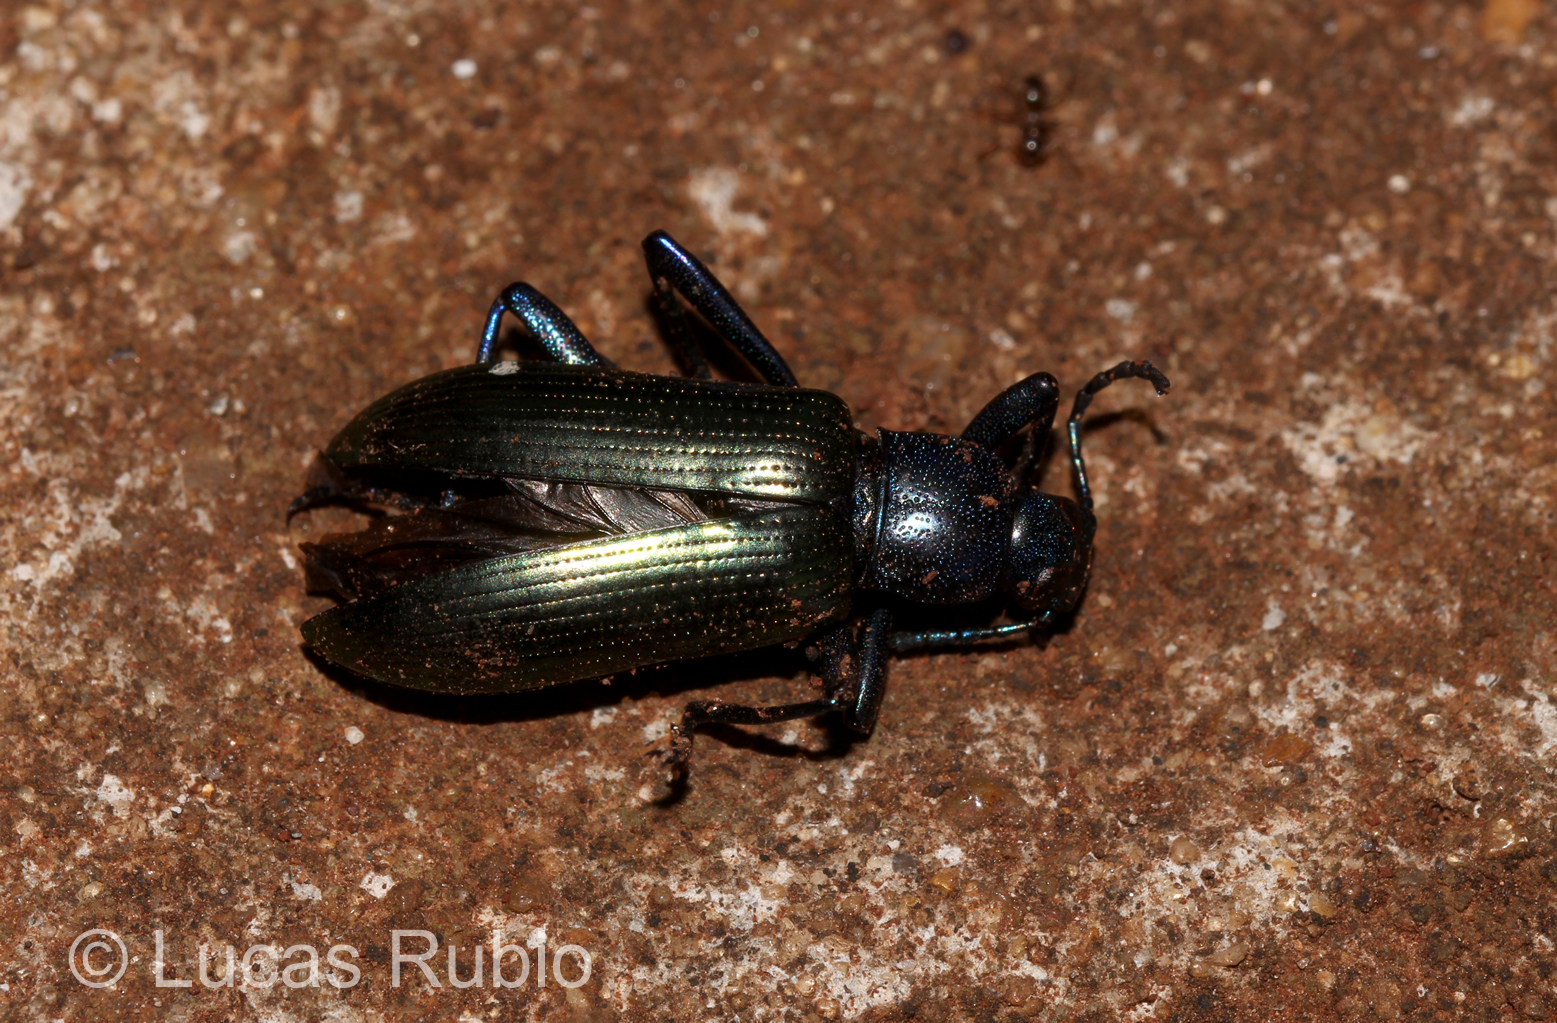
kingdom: Animalia
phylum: Arthropoda
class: Insecta
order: Coleoptera
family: Tenebrionidae
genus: Strongylium
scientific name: Strongylium
